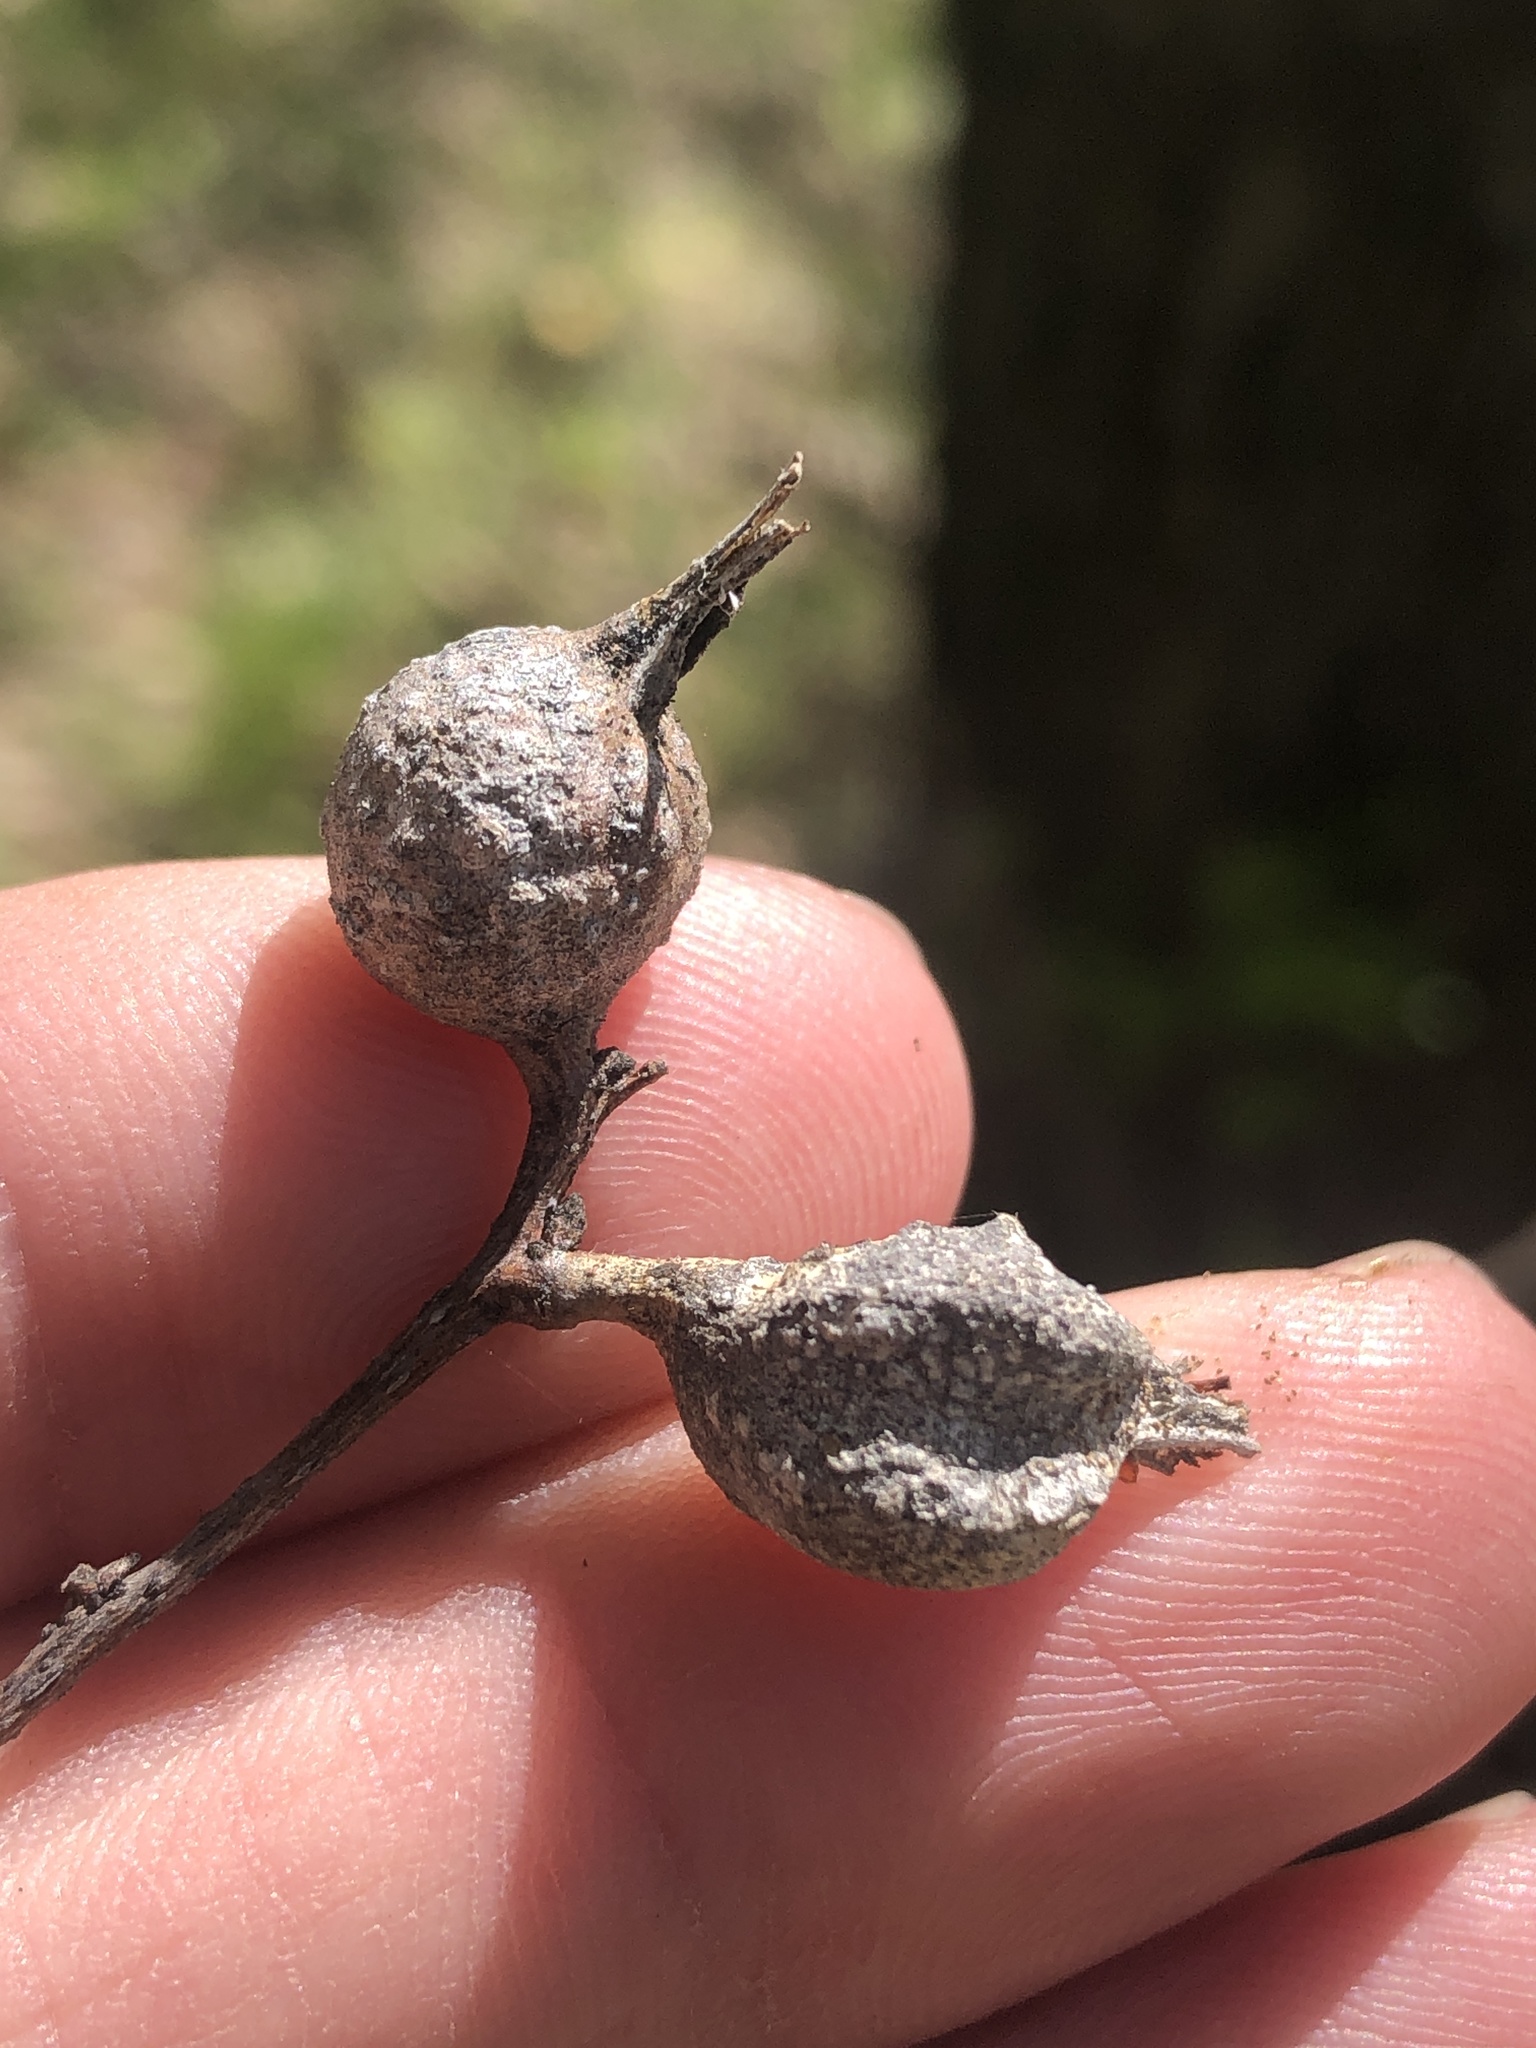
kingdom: Animalia
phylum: Arthropoda
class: Insecta
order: Hemiptera
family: Aphalaridae
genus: Pachypsylla
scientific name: Pachypsylla venusta
